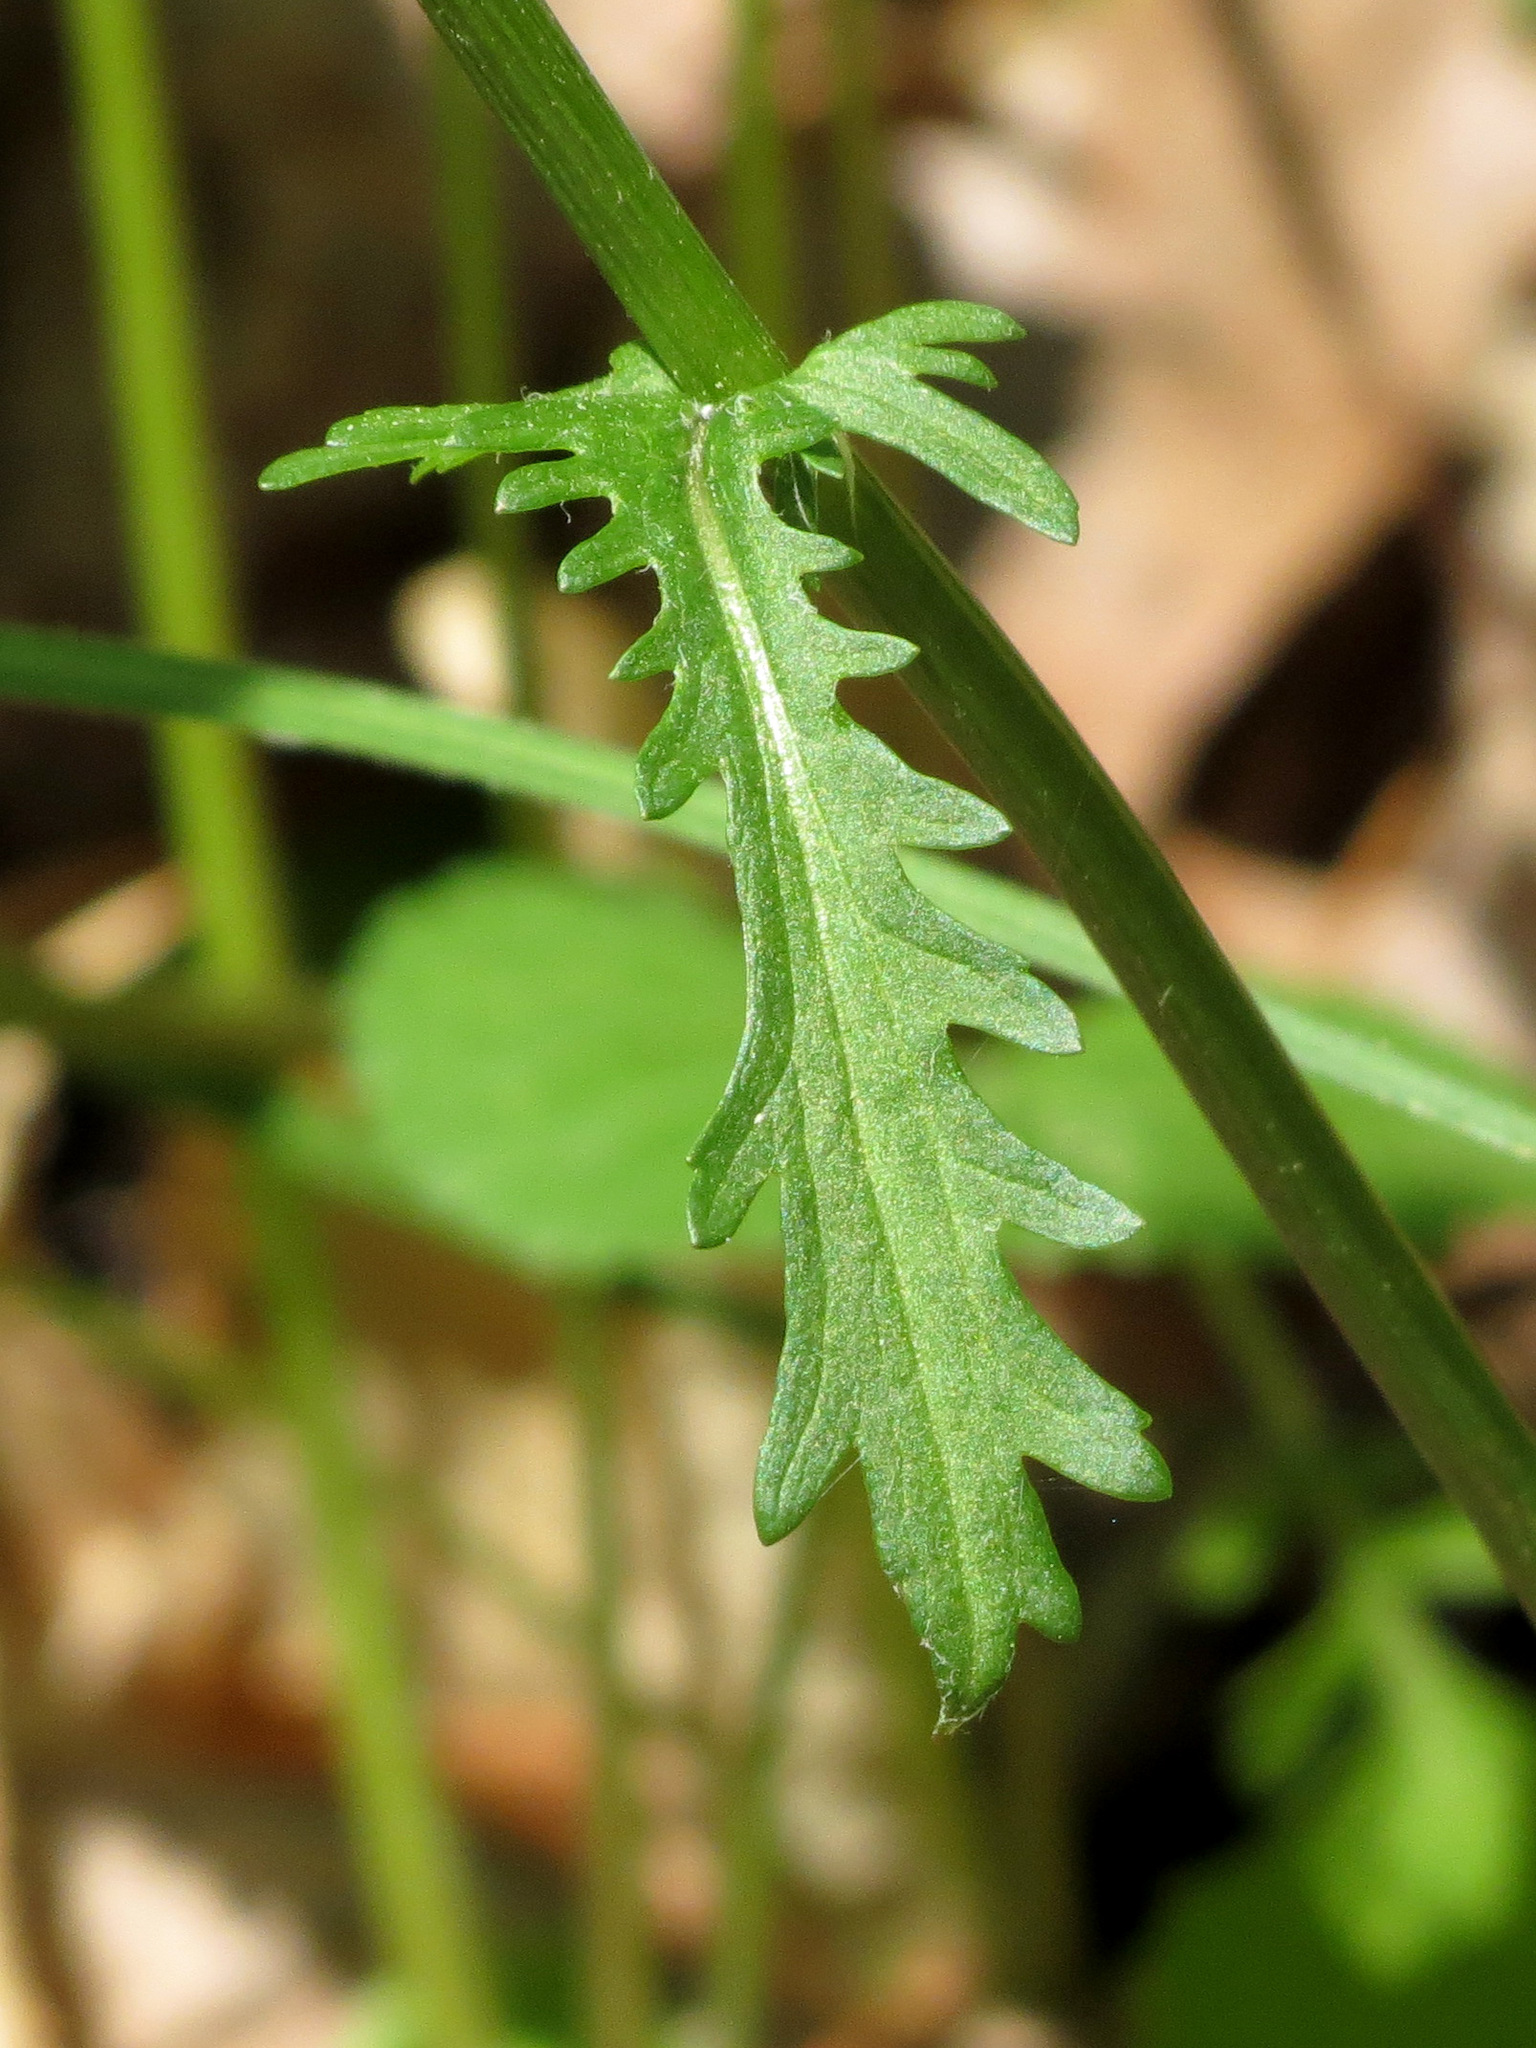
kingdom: Plantae
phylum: Tracheophyta
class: Magnoliopsida
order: Asterales
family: Asteraceae
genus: Packera
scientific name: Packera aurea
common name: Golden groundsel
